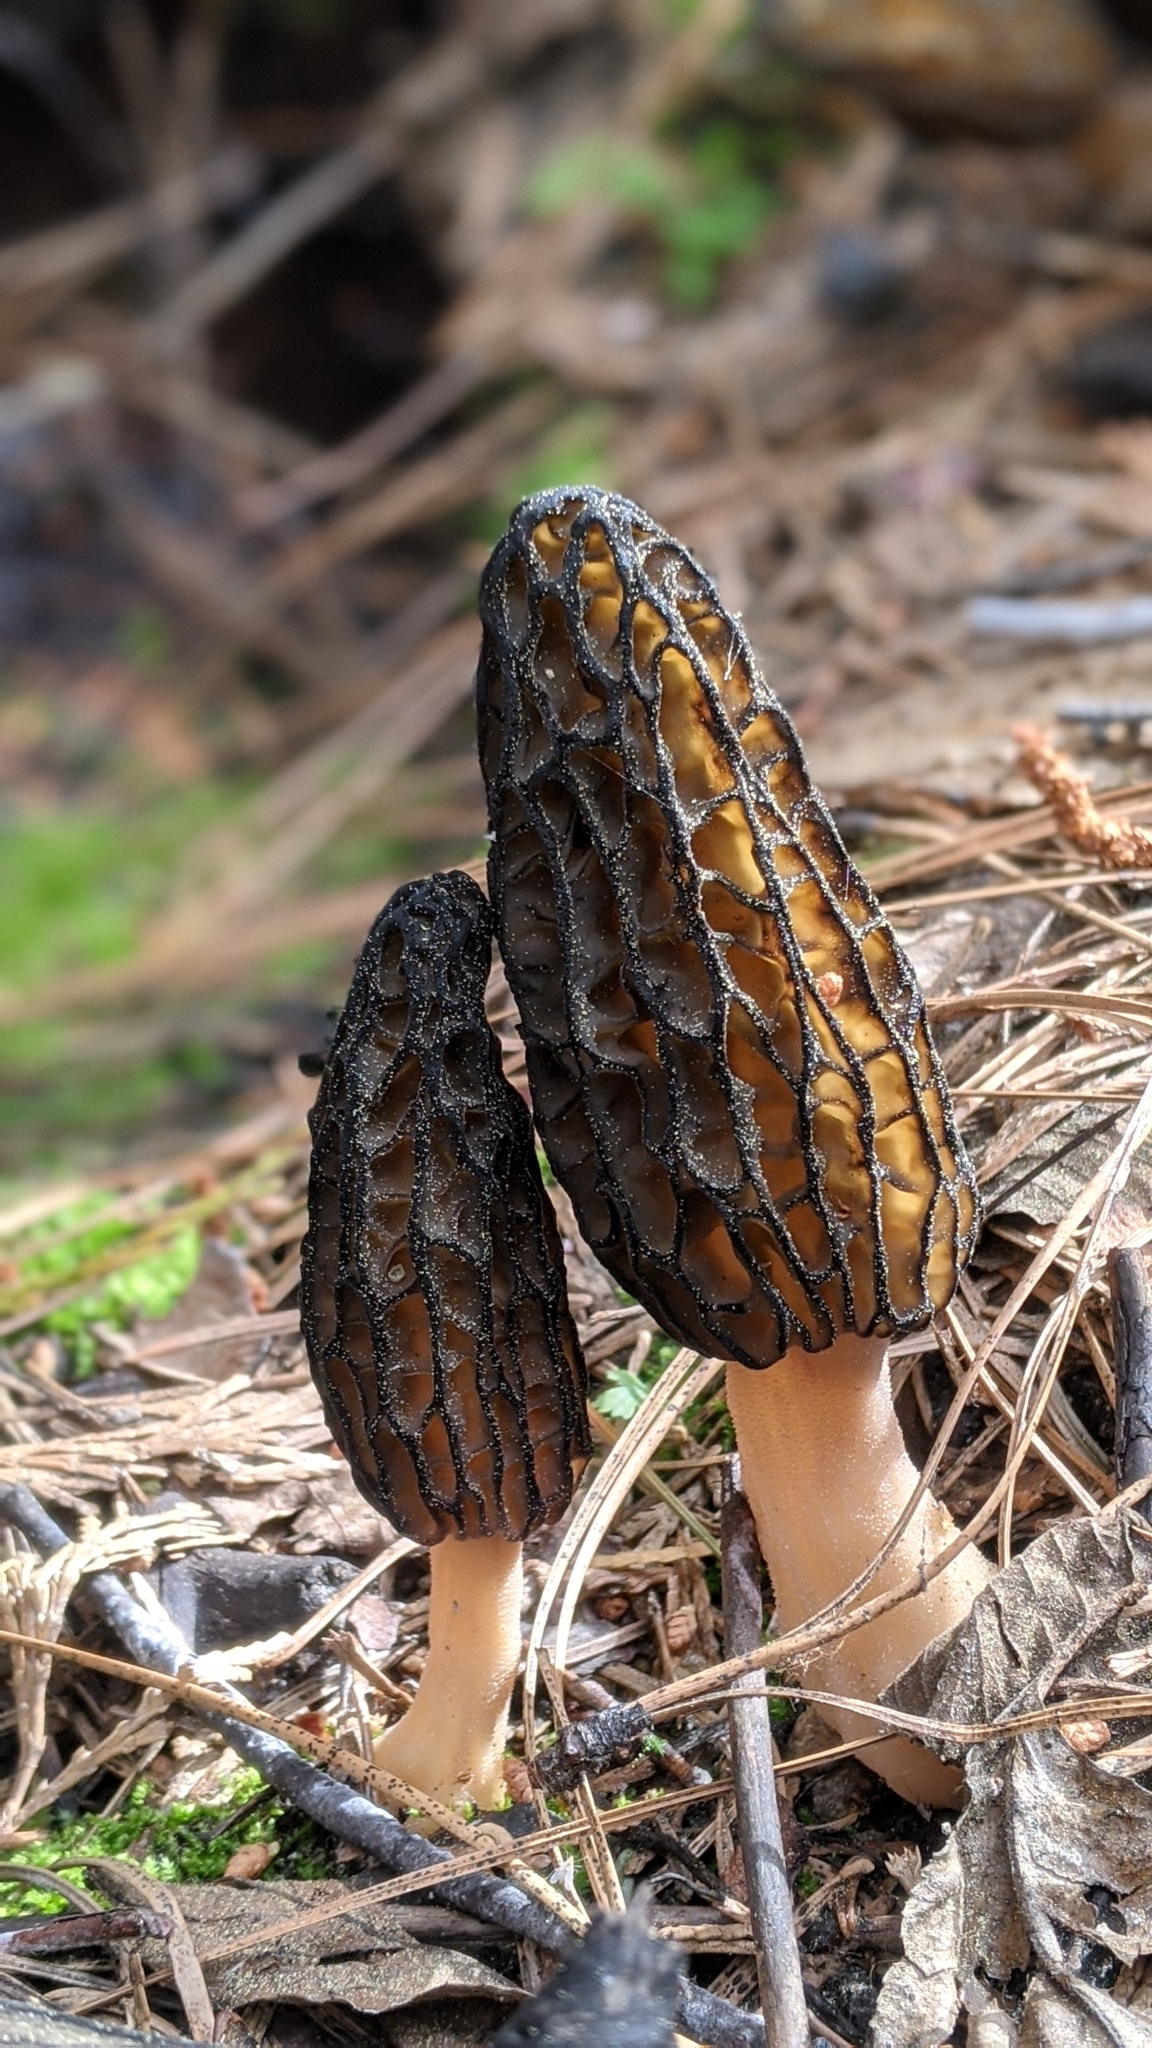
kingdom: Fungi
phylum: Ascomycota
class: Pezizomycetes
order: Pezizales
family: Morchellaceae
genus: Morchella
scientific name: Morchella brunnea
